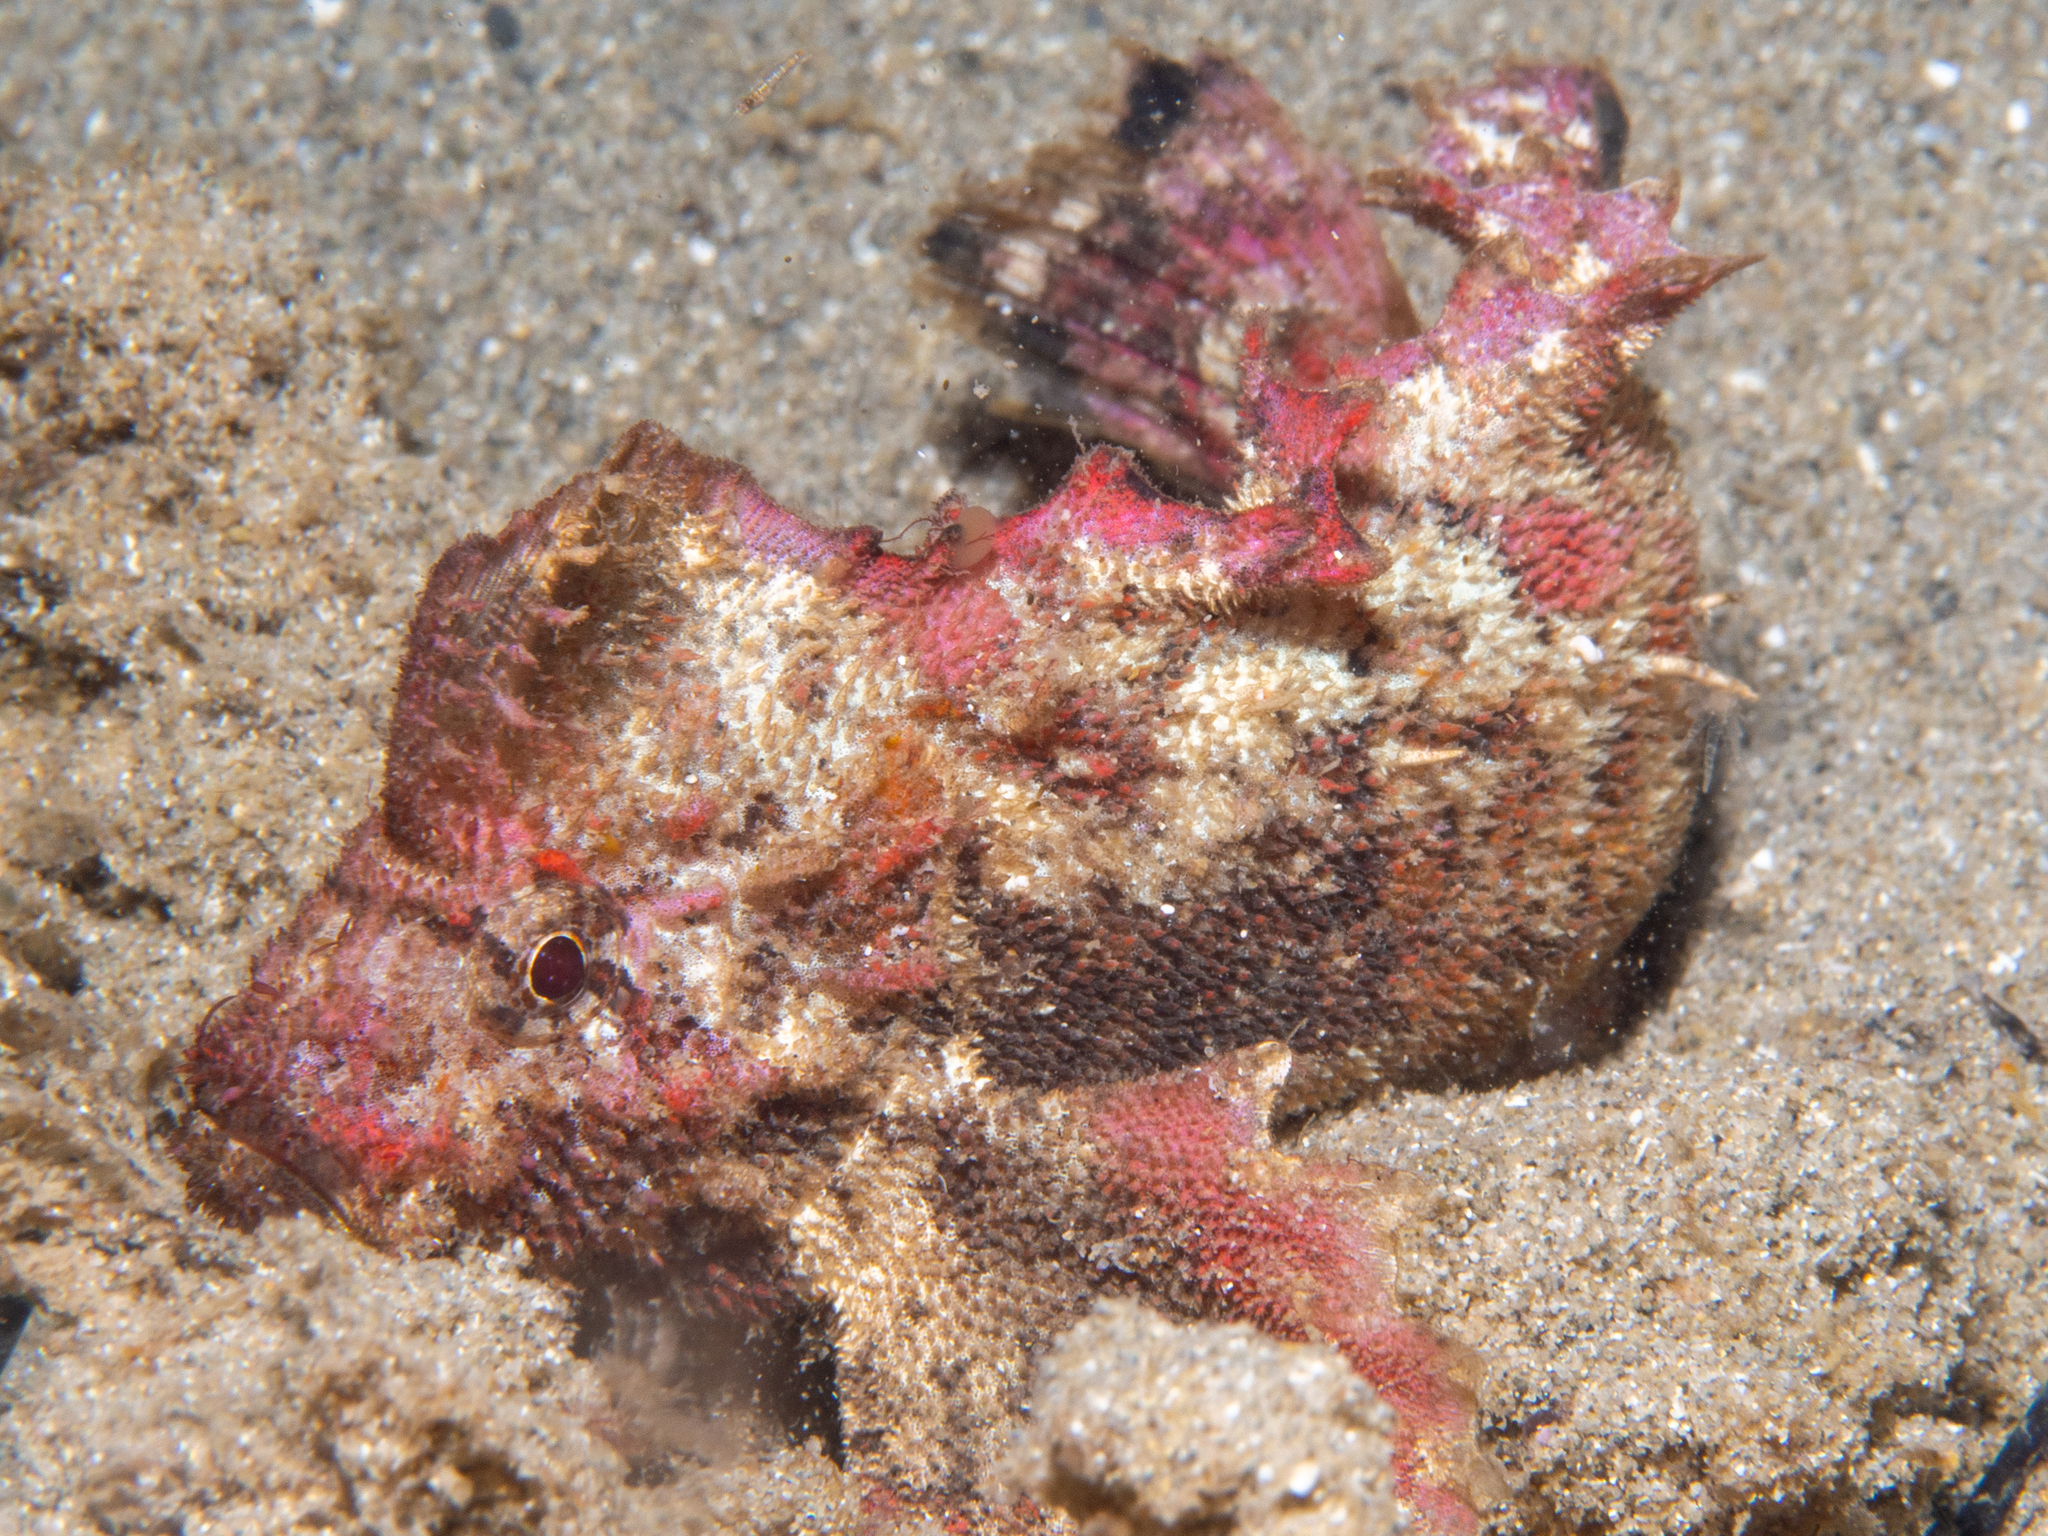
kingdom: Animalia
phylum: Chordata
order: Scorpaeniformes
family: Aploactinidae
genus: Aploactisoma
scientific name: Aploactisoma milesii
